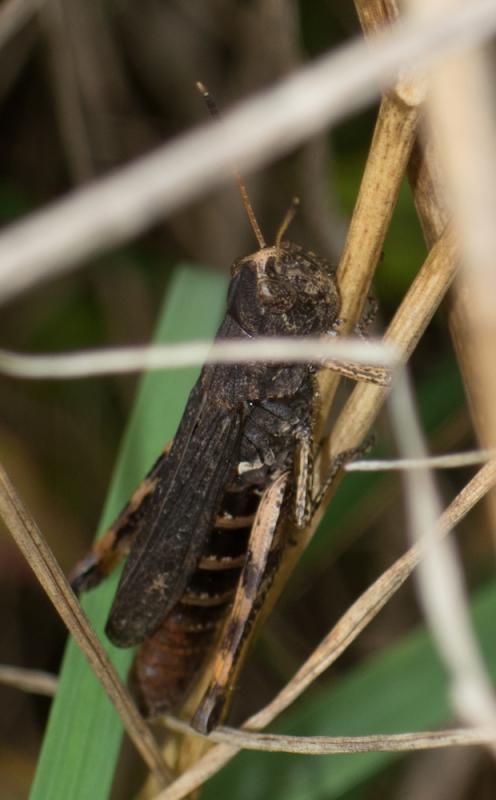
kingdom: Animalia
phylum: Arthropoda
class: Insecta
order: Orthoptera
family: Acrididae
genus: Gomphocerippus
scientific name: Gomphocerippus rufus
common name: Rufous grasshopper
